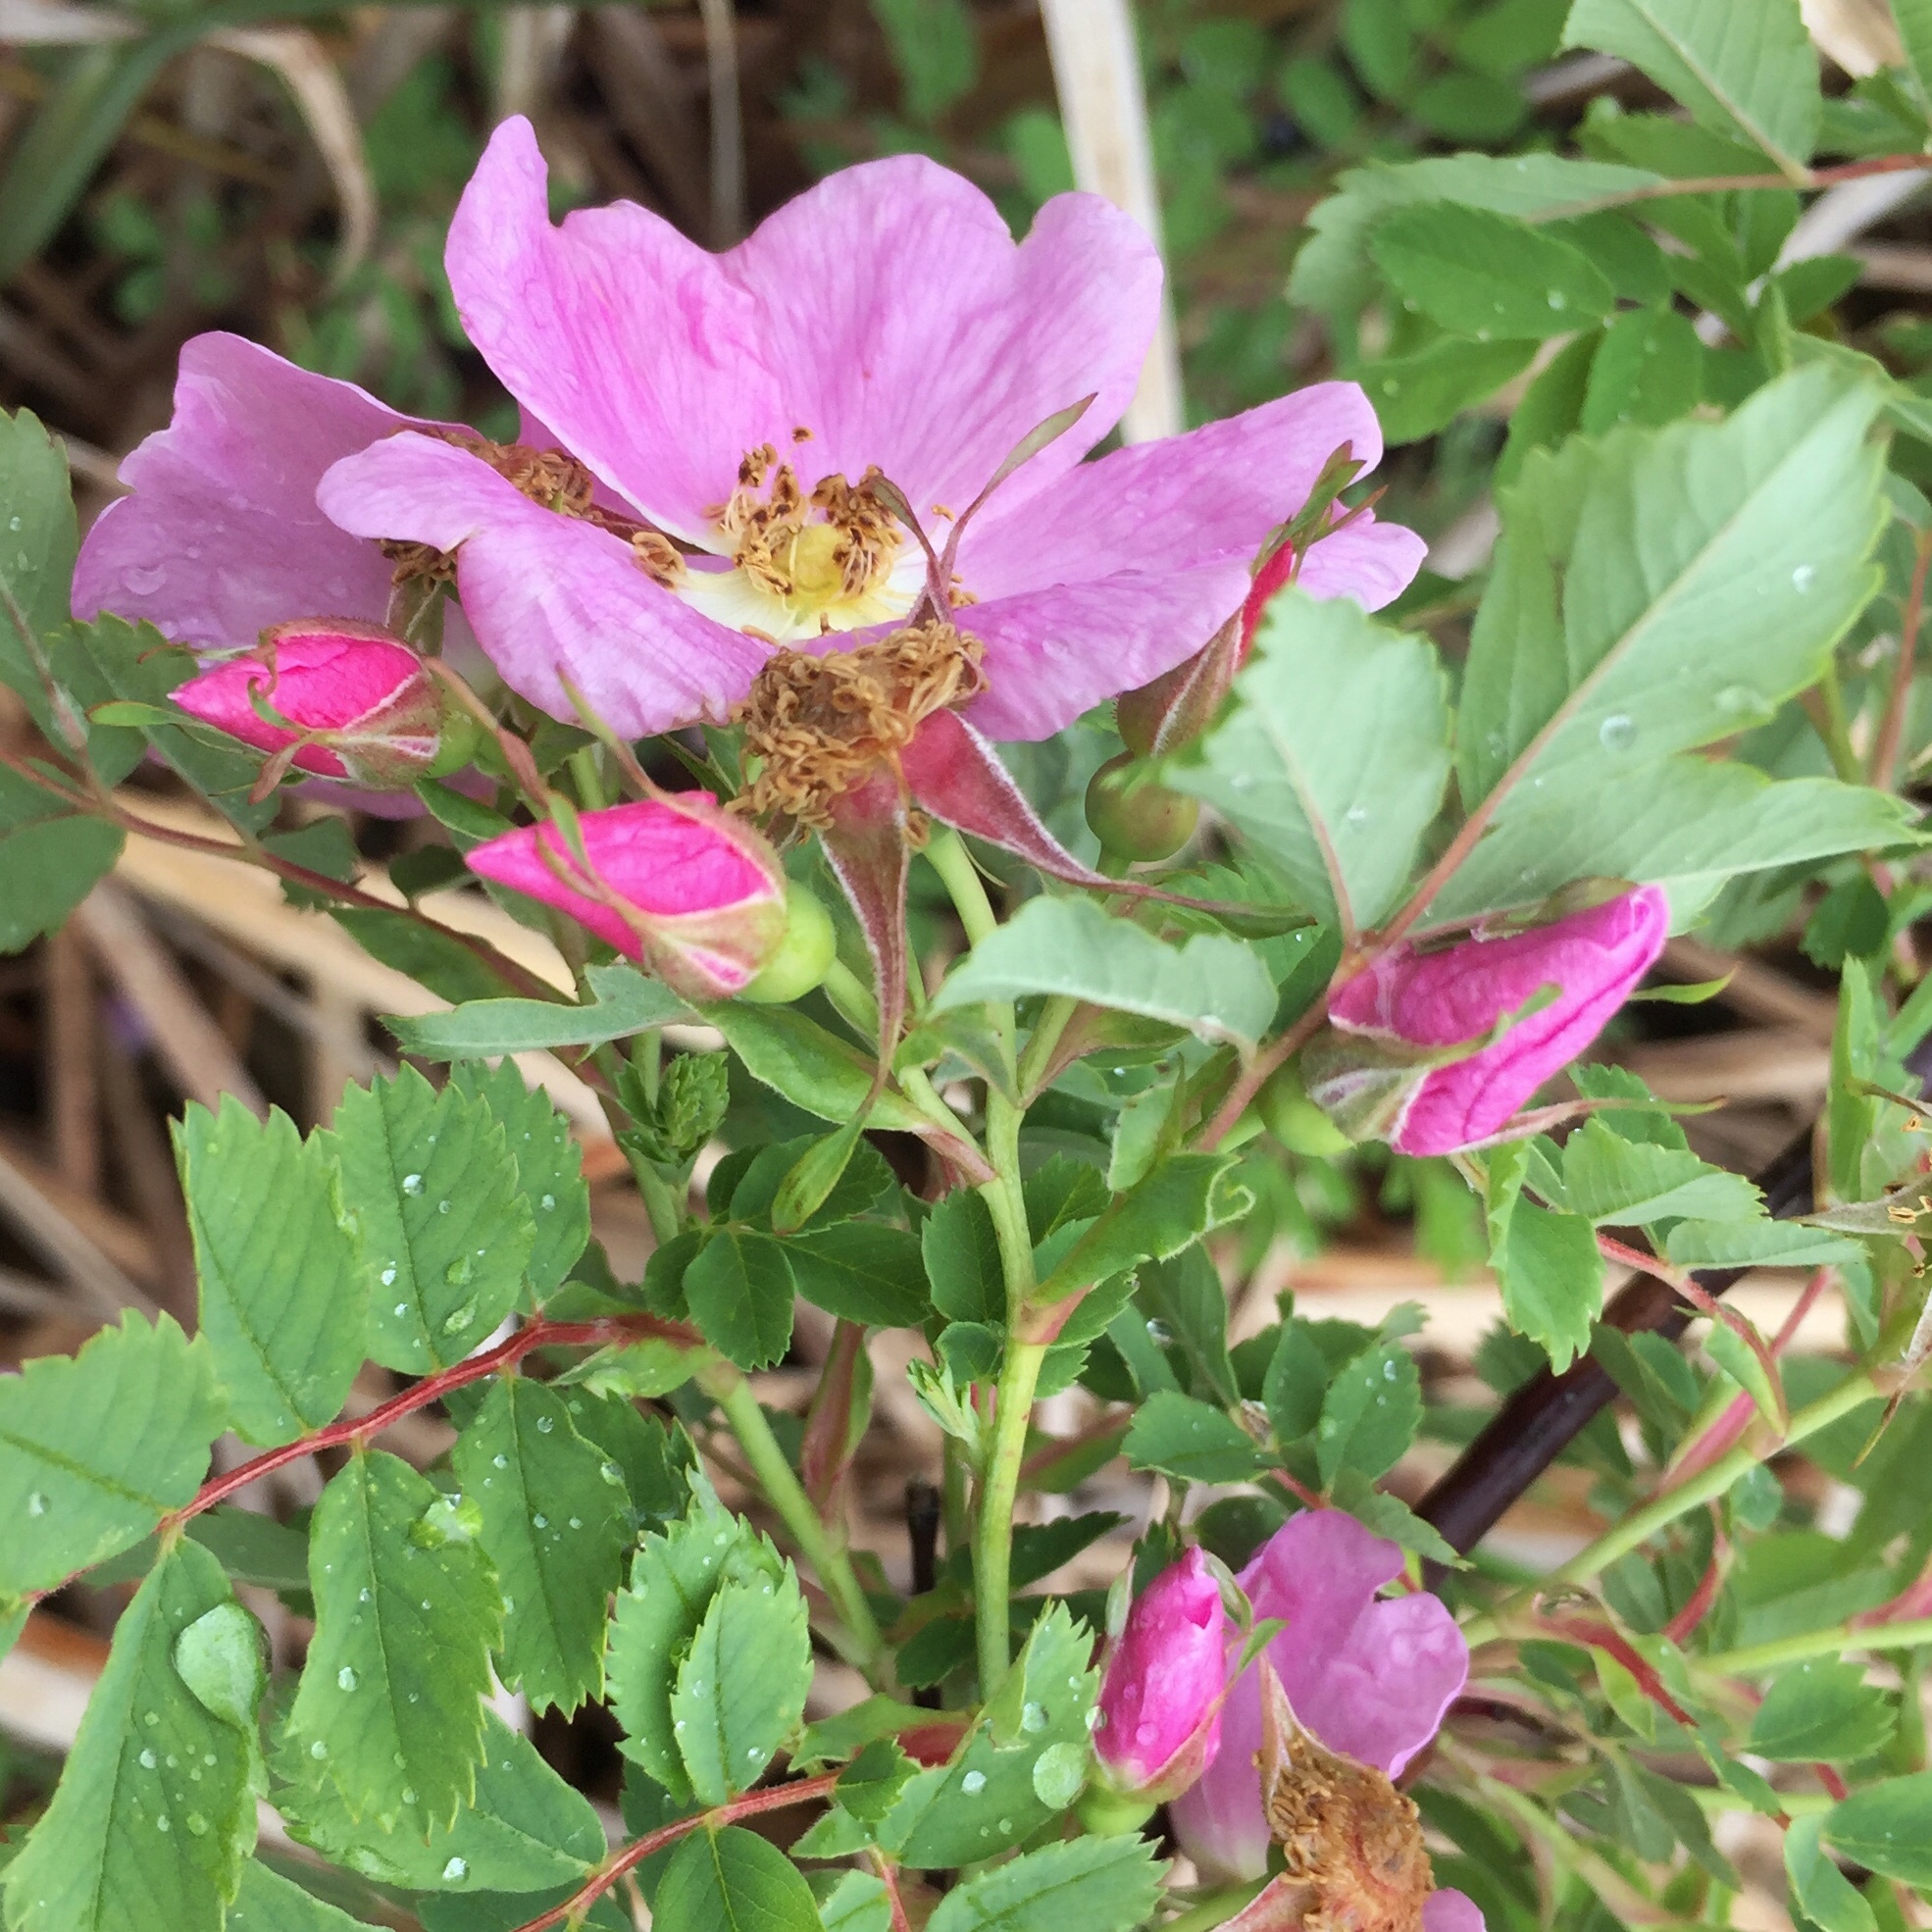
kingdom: Plantae
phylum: Tracheophyta
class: Magnoliopsida
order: Rosales
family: Rosaceae
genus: Rosa
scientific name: Rosa woodsii
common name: Woods's rose
